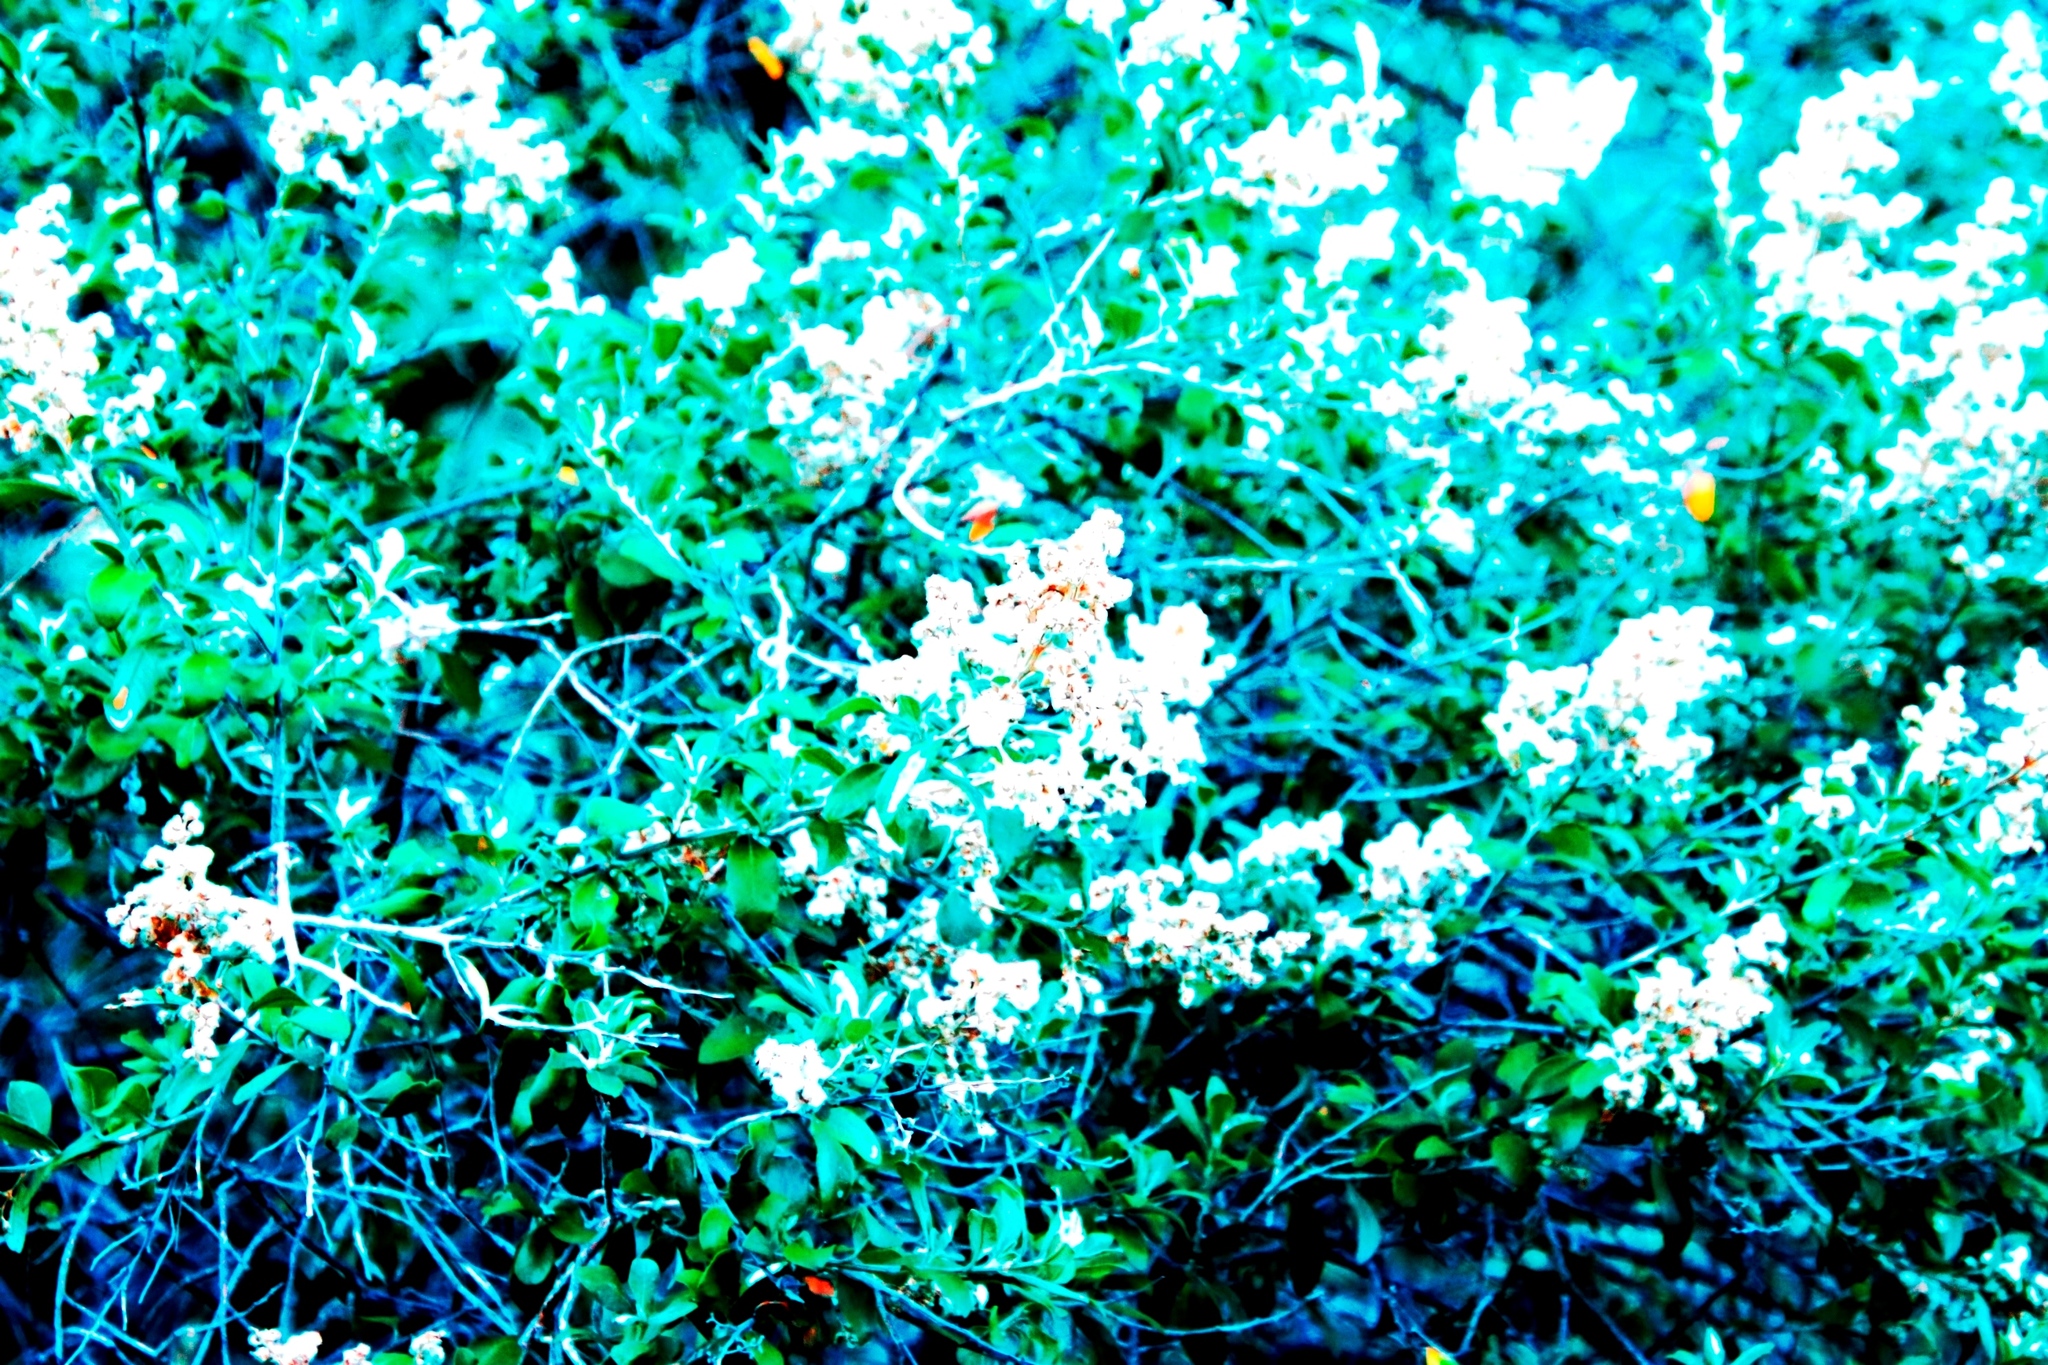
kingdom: Plantae
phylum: Tracheophyta
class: Magnoliopsida
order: Asterales
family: Asteraceae
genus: Tarchonanthus
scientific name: Tarchonanthus littoralis
